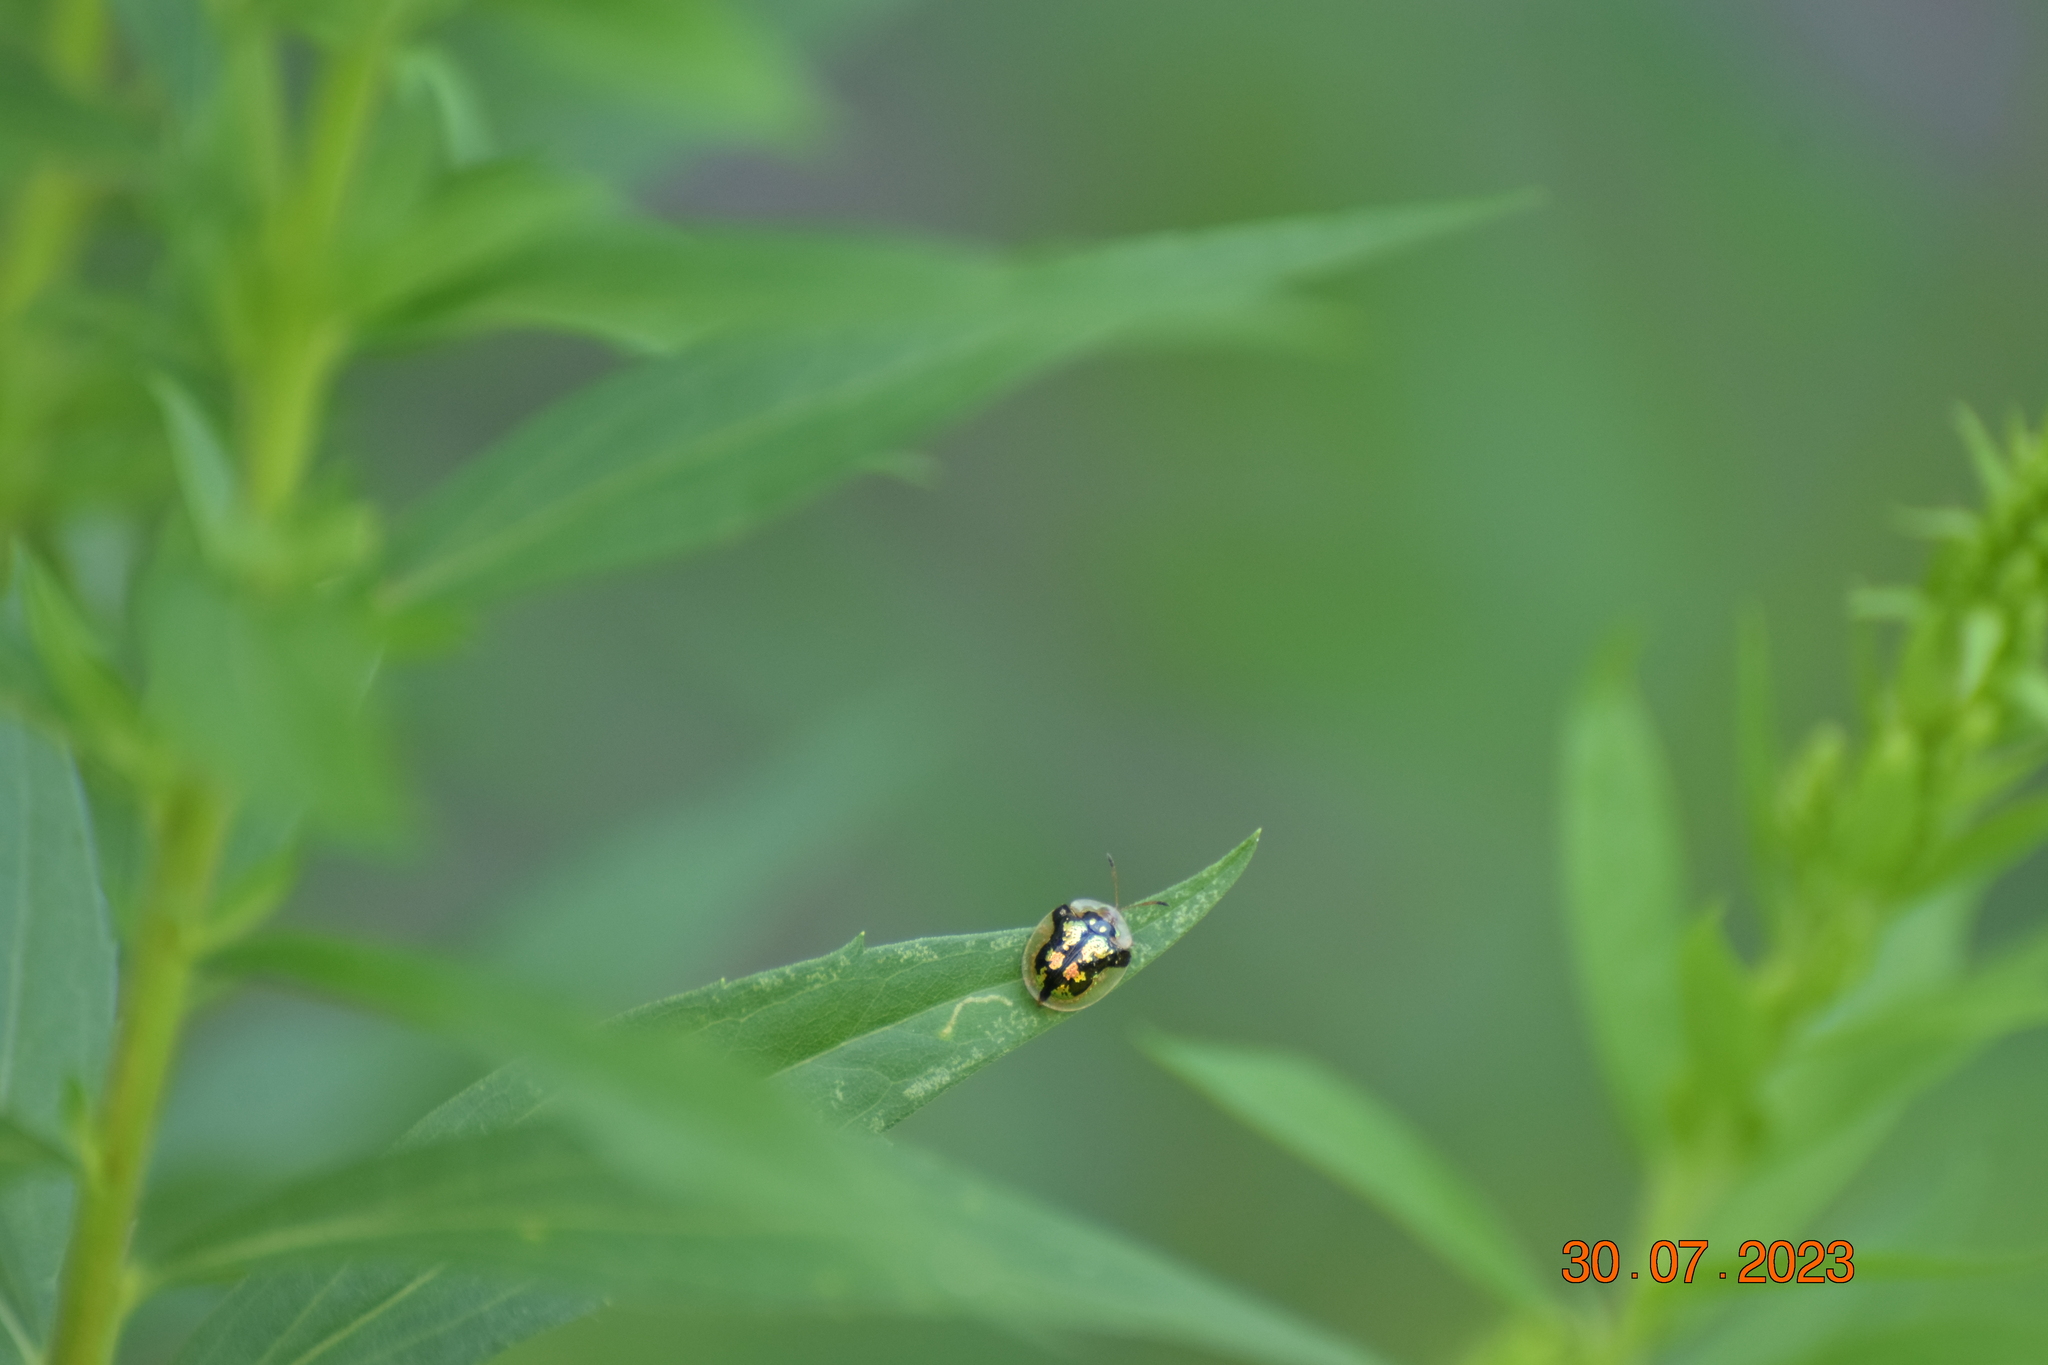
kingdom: Animalia
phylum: Arthropoda
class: Insecta
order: Coleoptera
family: Chrysomelidae
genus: Deloyala
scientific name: Deloyala guttata
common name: Mottled tortoise beetle
